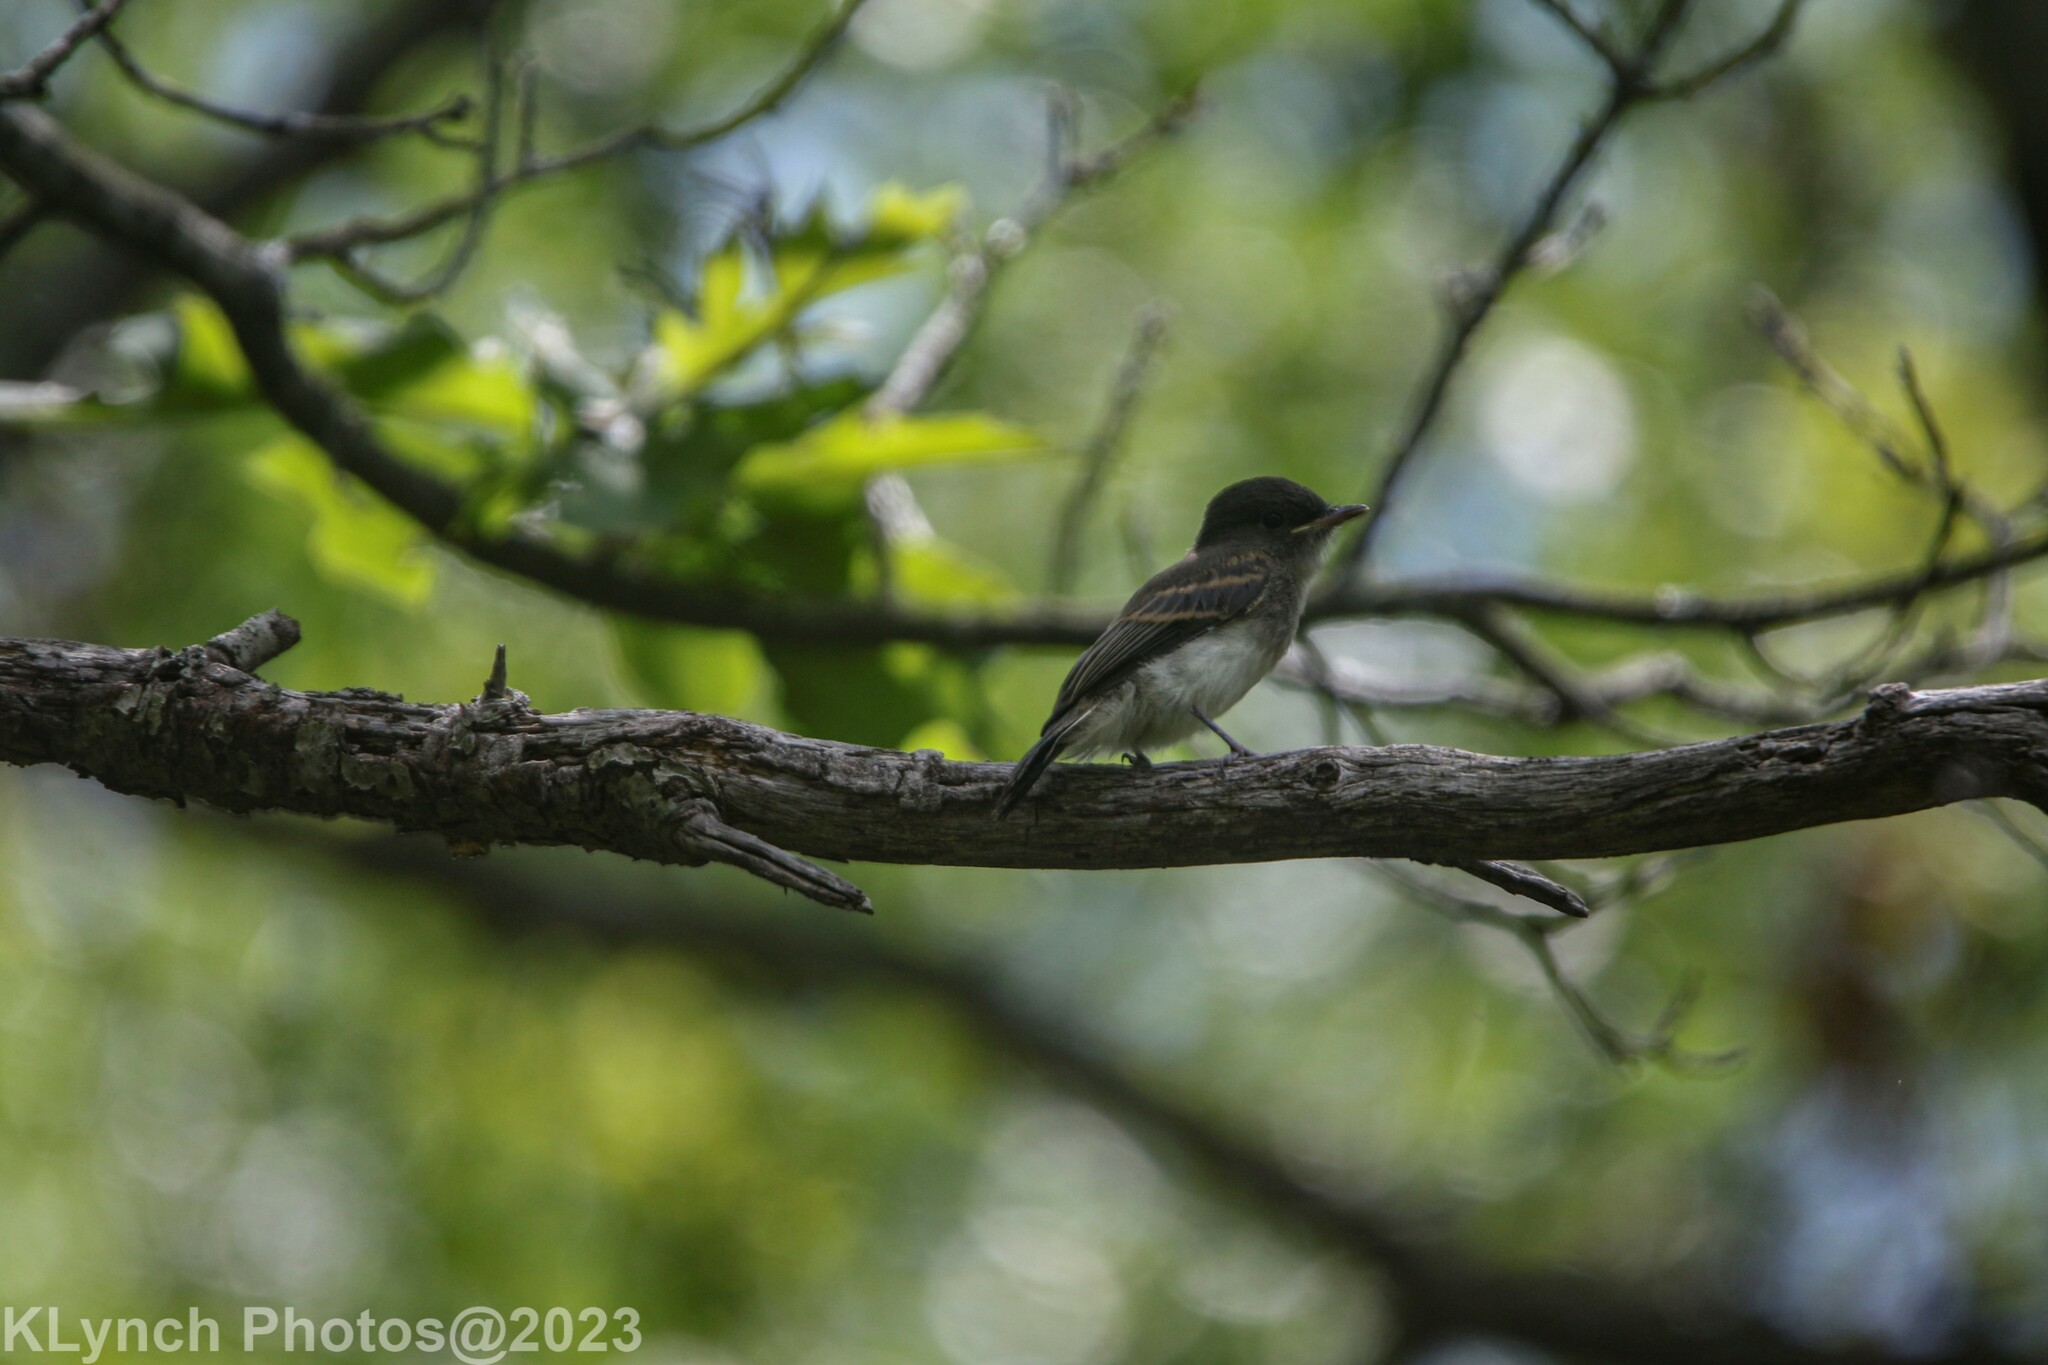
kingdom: Animalia
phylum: Chordata
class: Aves
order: Passeriformes
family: Tyrannidae
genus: Sayornis
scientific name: Sayornis phoebe
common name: Eastern phoebe
